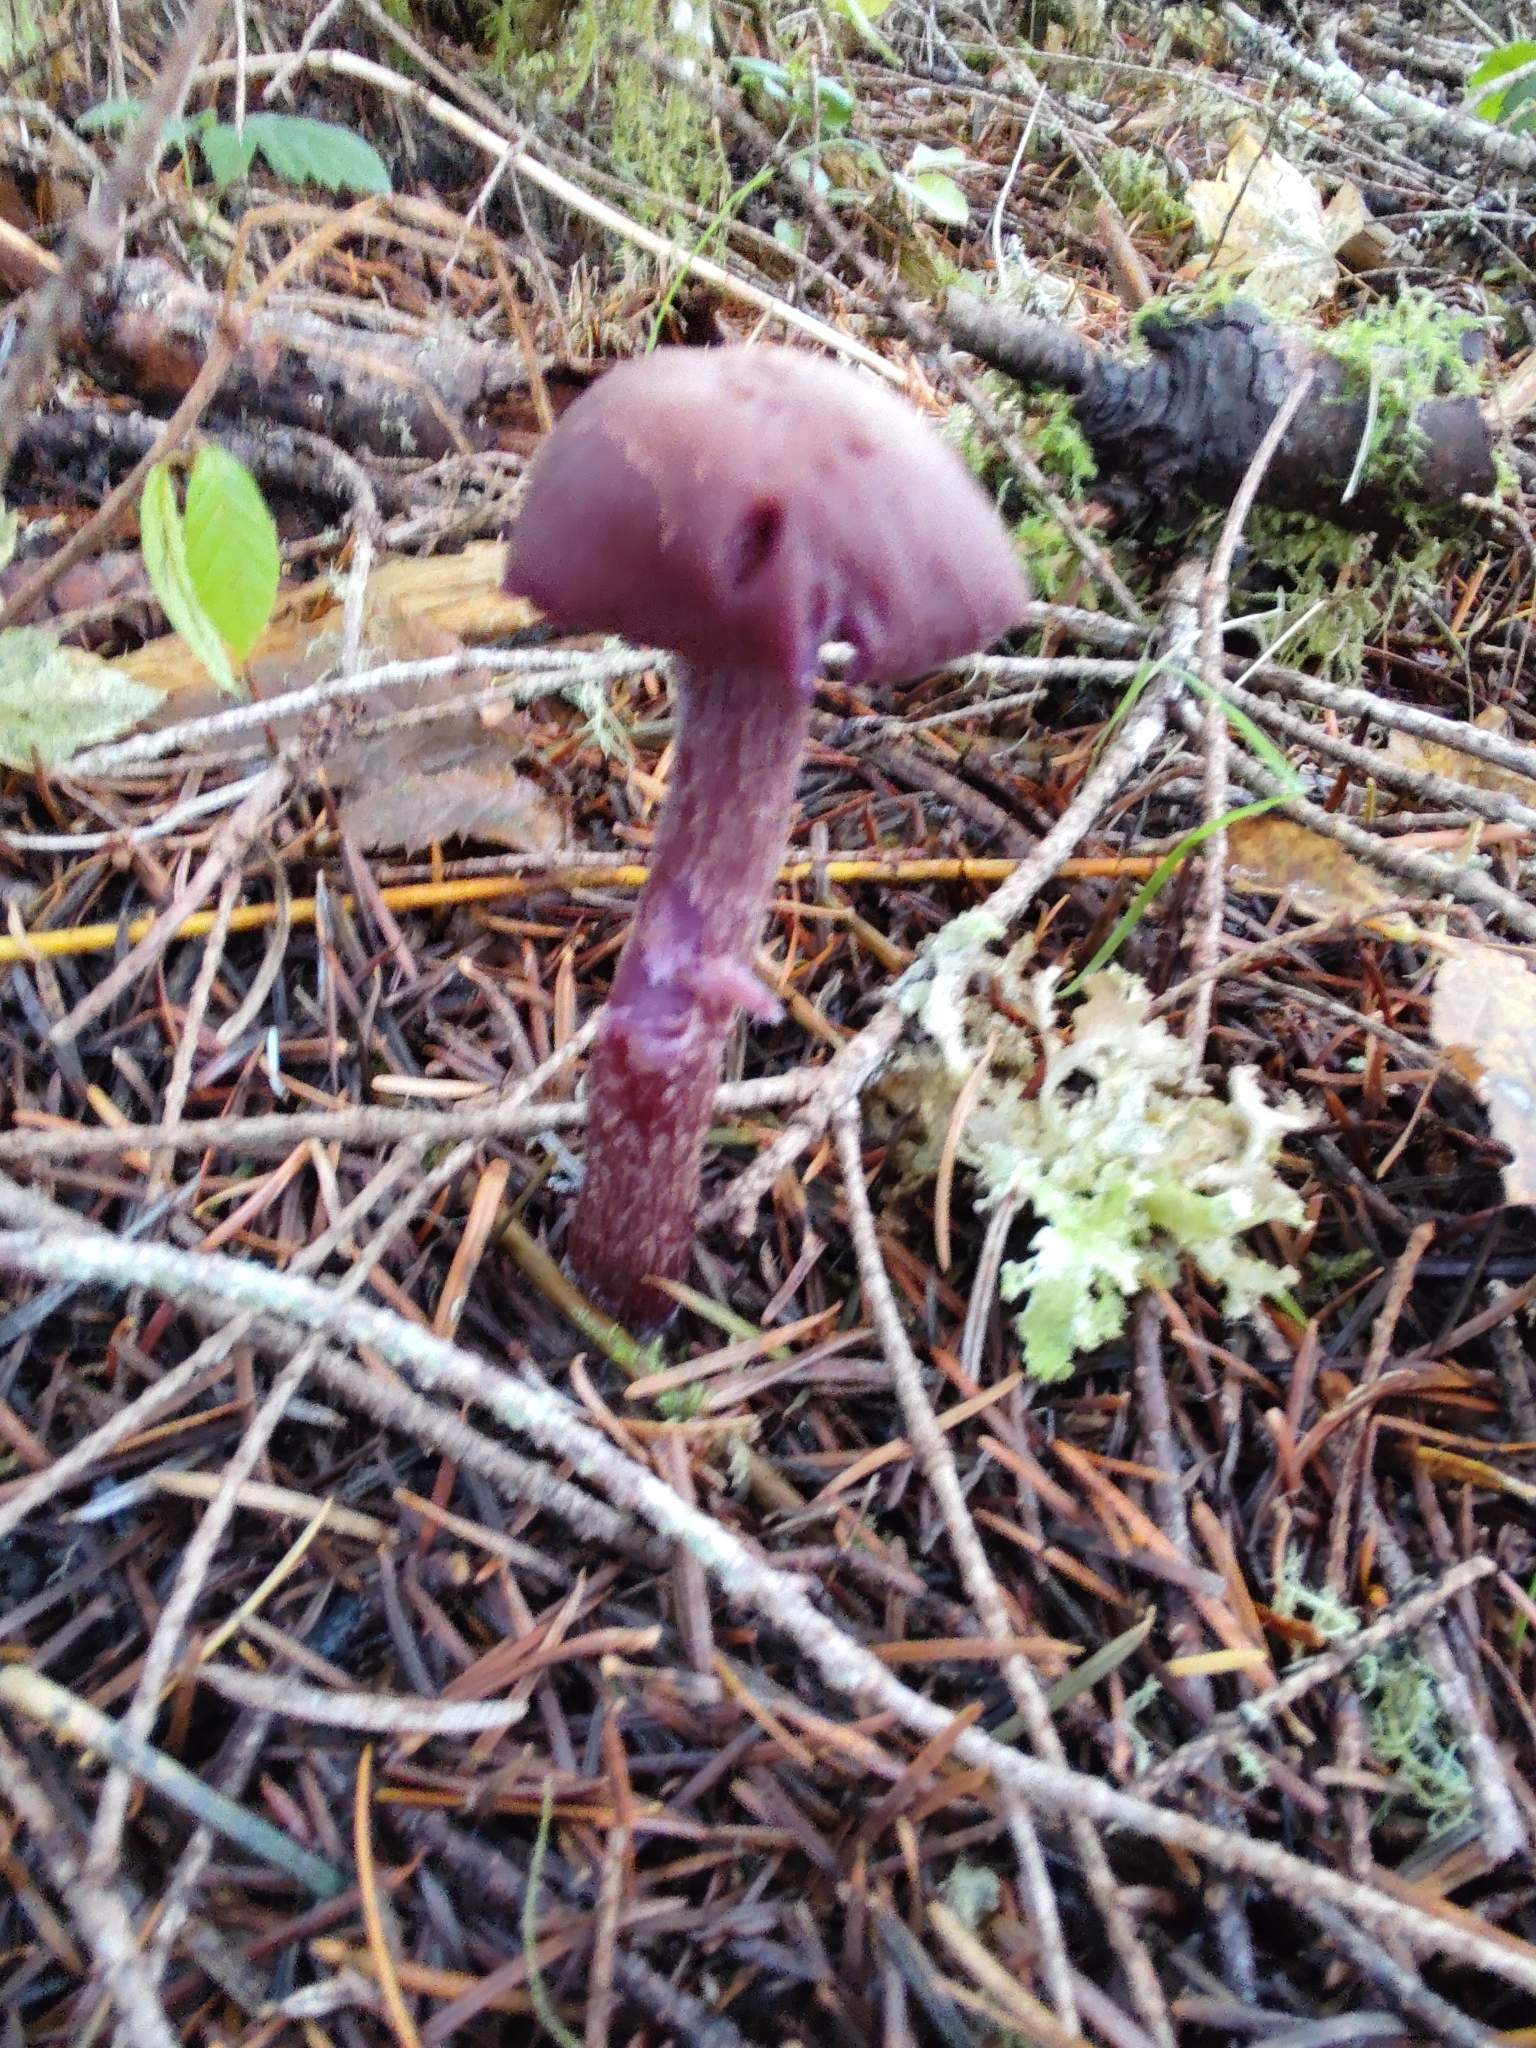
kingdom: Fungi
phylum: Basidiomycota
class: Agaricomycetes
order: Agaricales
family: Hydnangiaceae
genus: Laccaria
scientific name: Laccaria amethysteo-occidentalis
